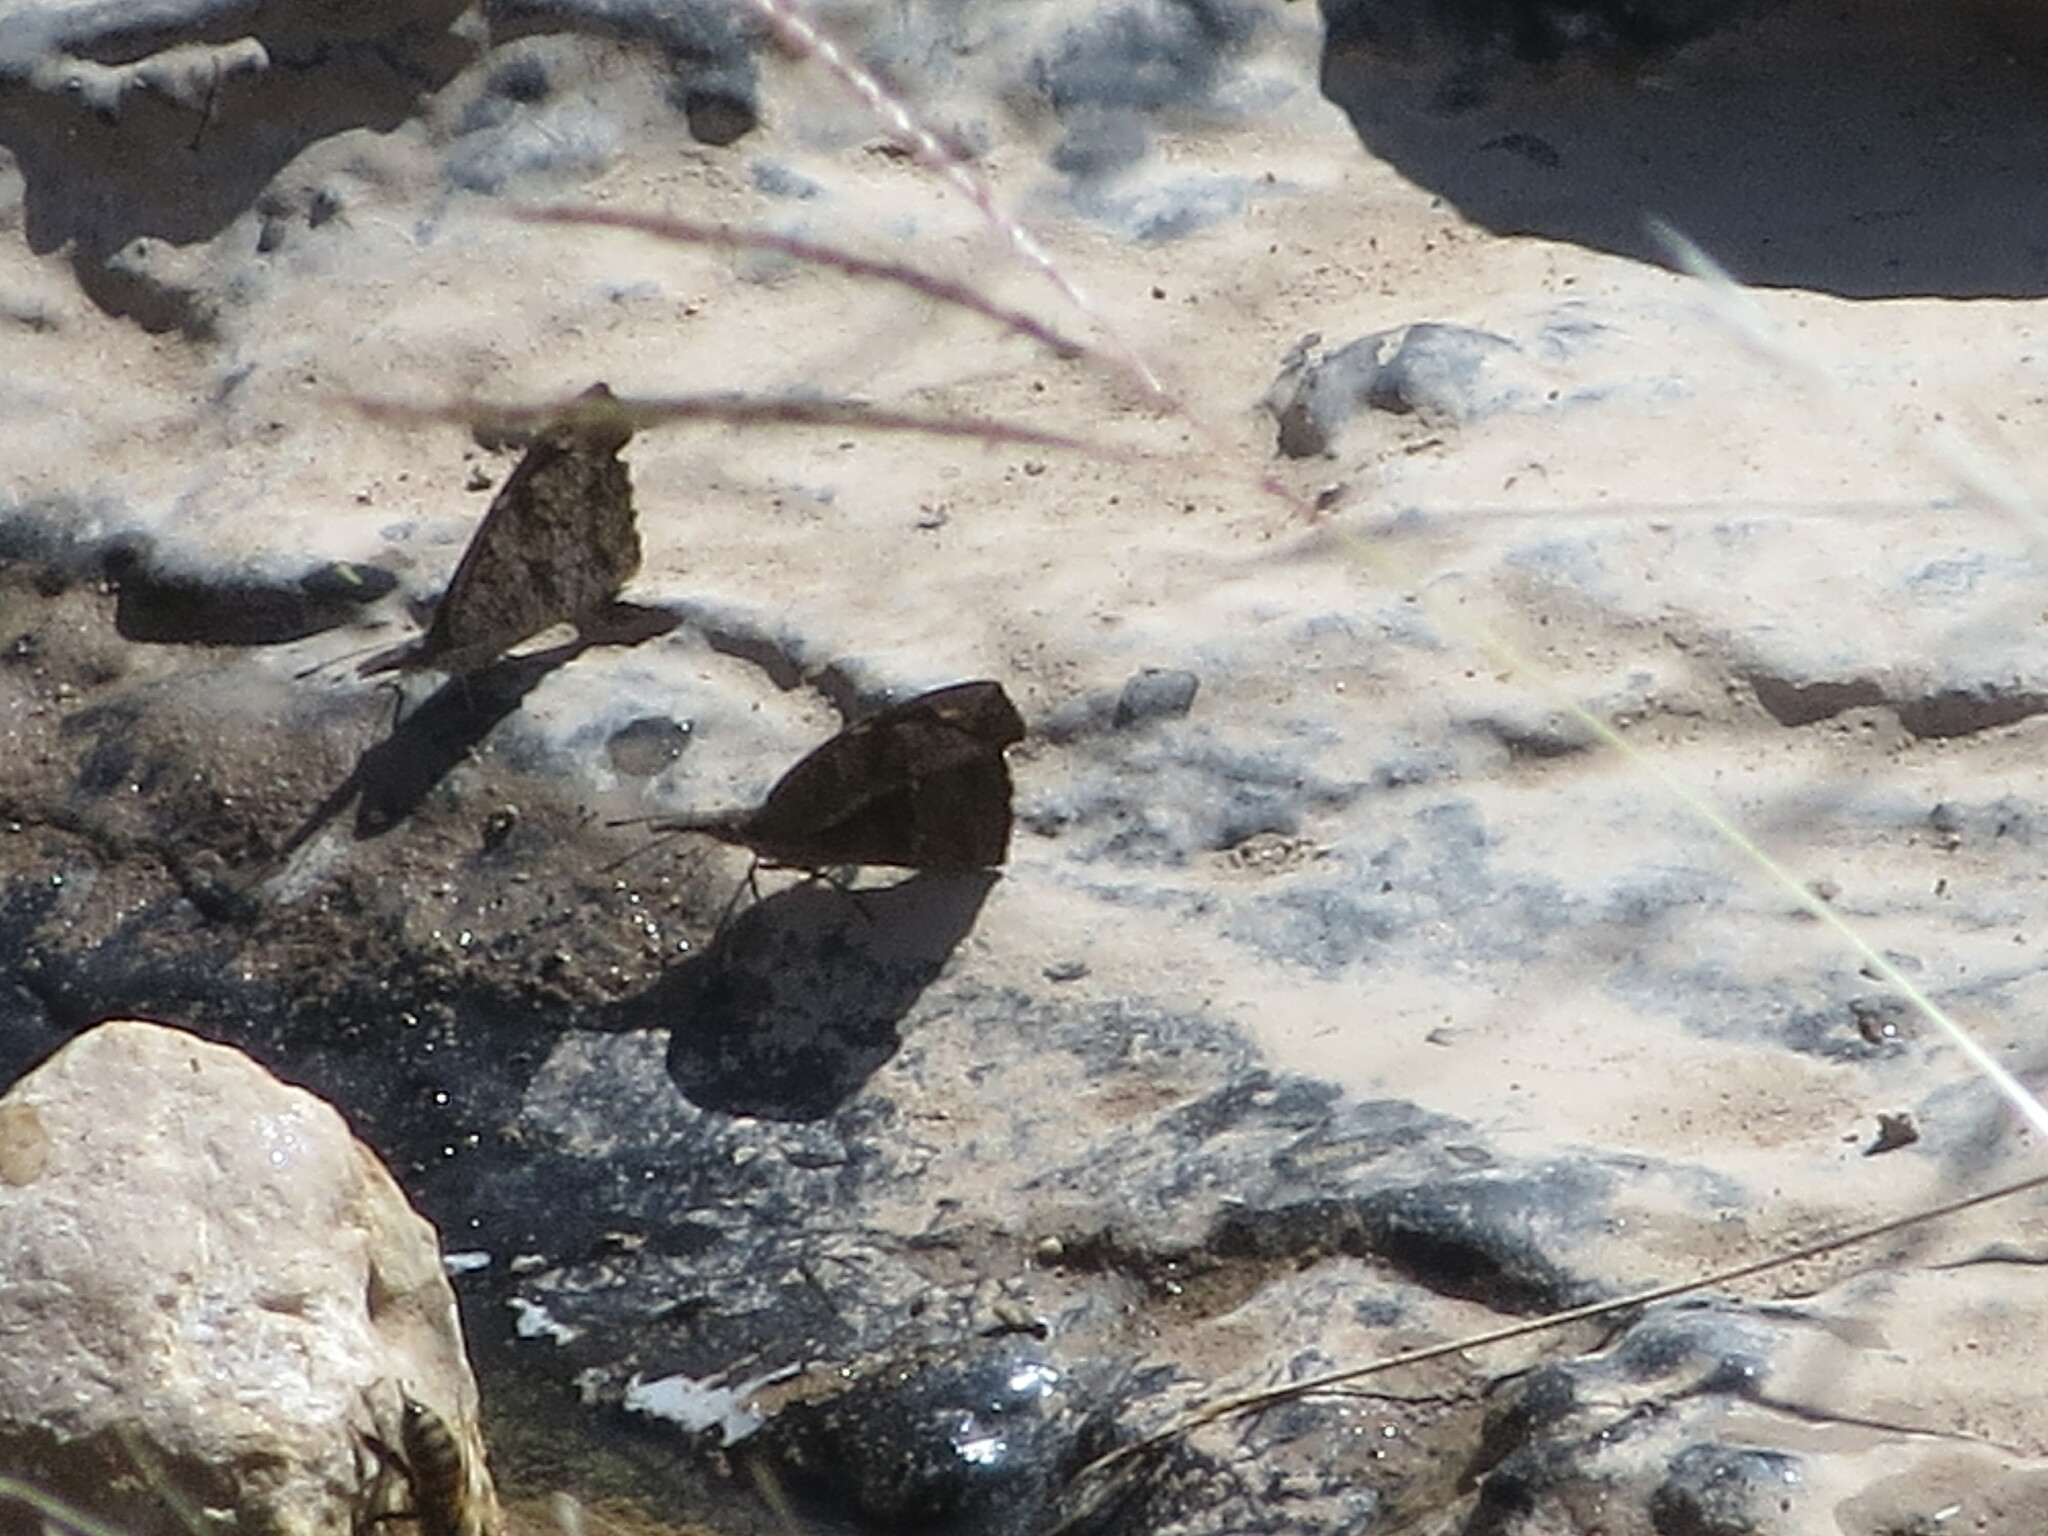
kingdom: Animalia
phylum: Arthropoda
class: Insecta
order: Lepidoptera
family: Nymphalidae
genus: Libytheana
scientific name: Libytheana carinenta
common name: American snout
